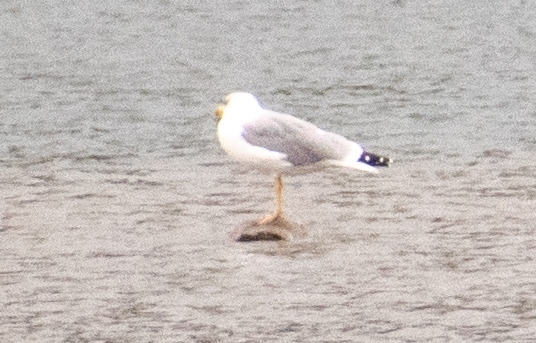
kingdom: Animalia
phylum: Chordata
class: Aves
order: Charadriiformes
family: Laridae
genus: Larus
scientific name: Larus michahellis
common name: Yellow-legged gull
